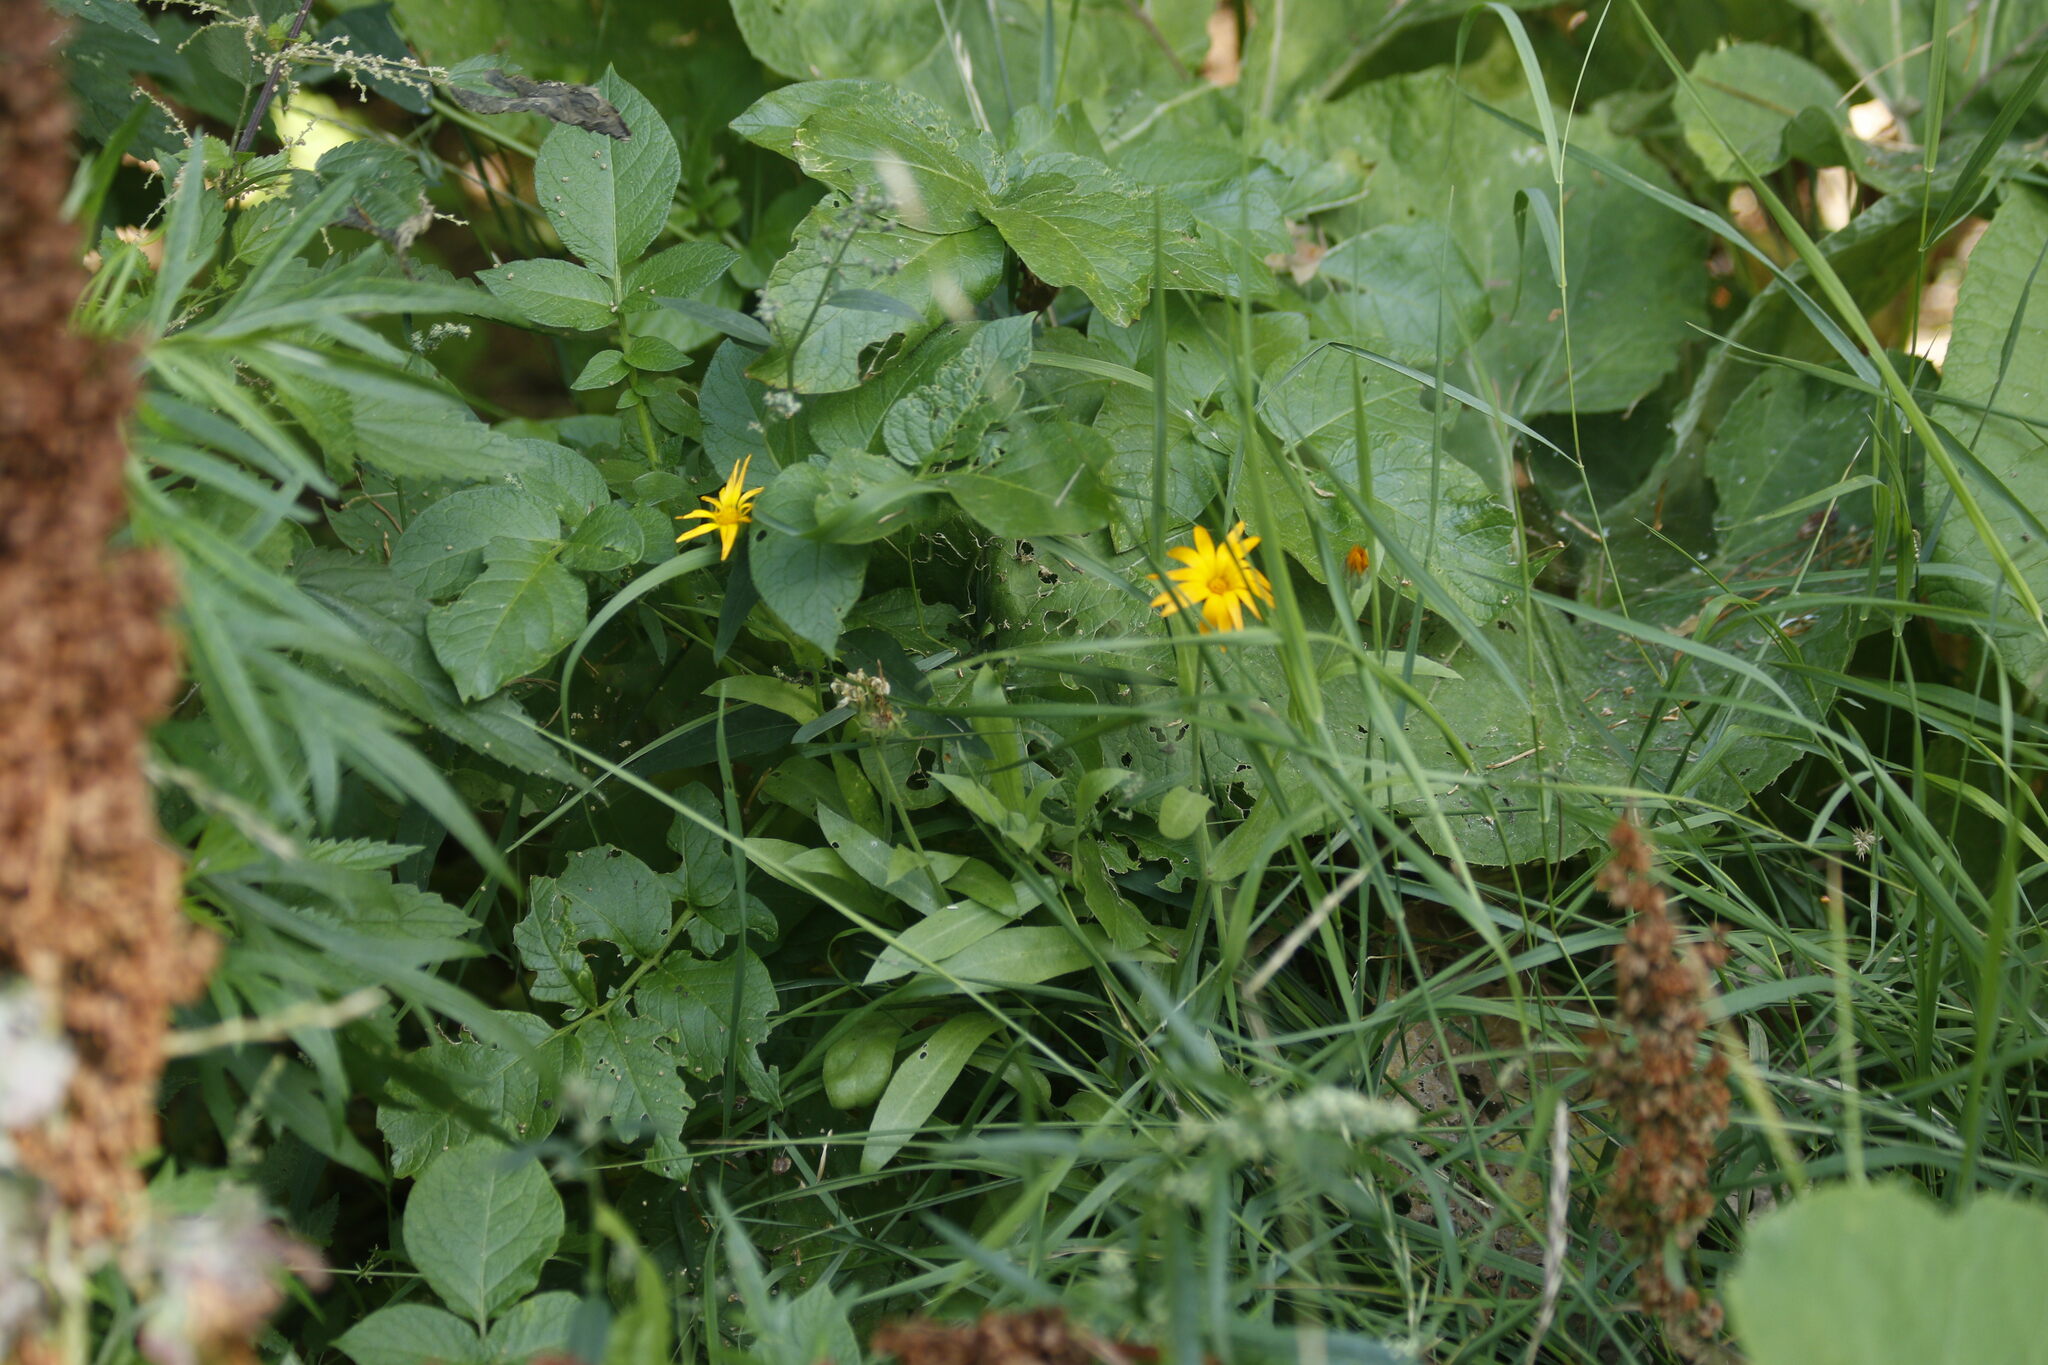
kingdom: Plantae
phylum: Tracheophyta
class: Magnoliopsida
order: Asterales
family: Asteraceae
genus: Calendula
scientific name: Calendula officinalis
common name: Pot marigold
